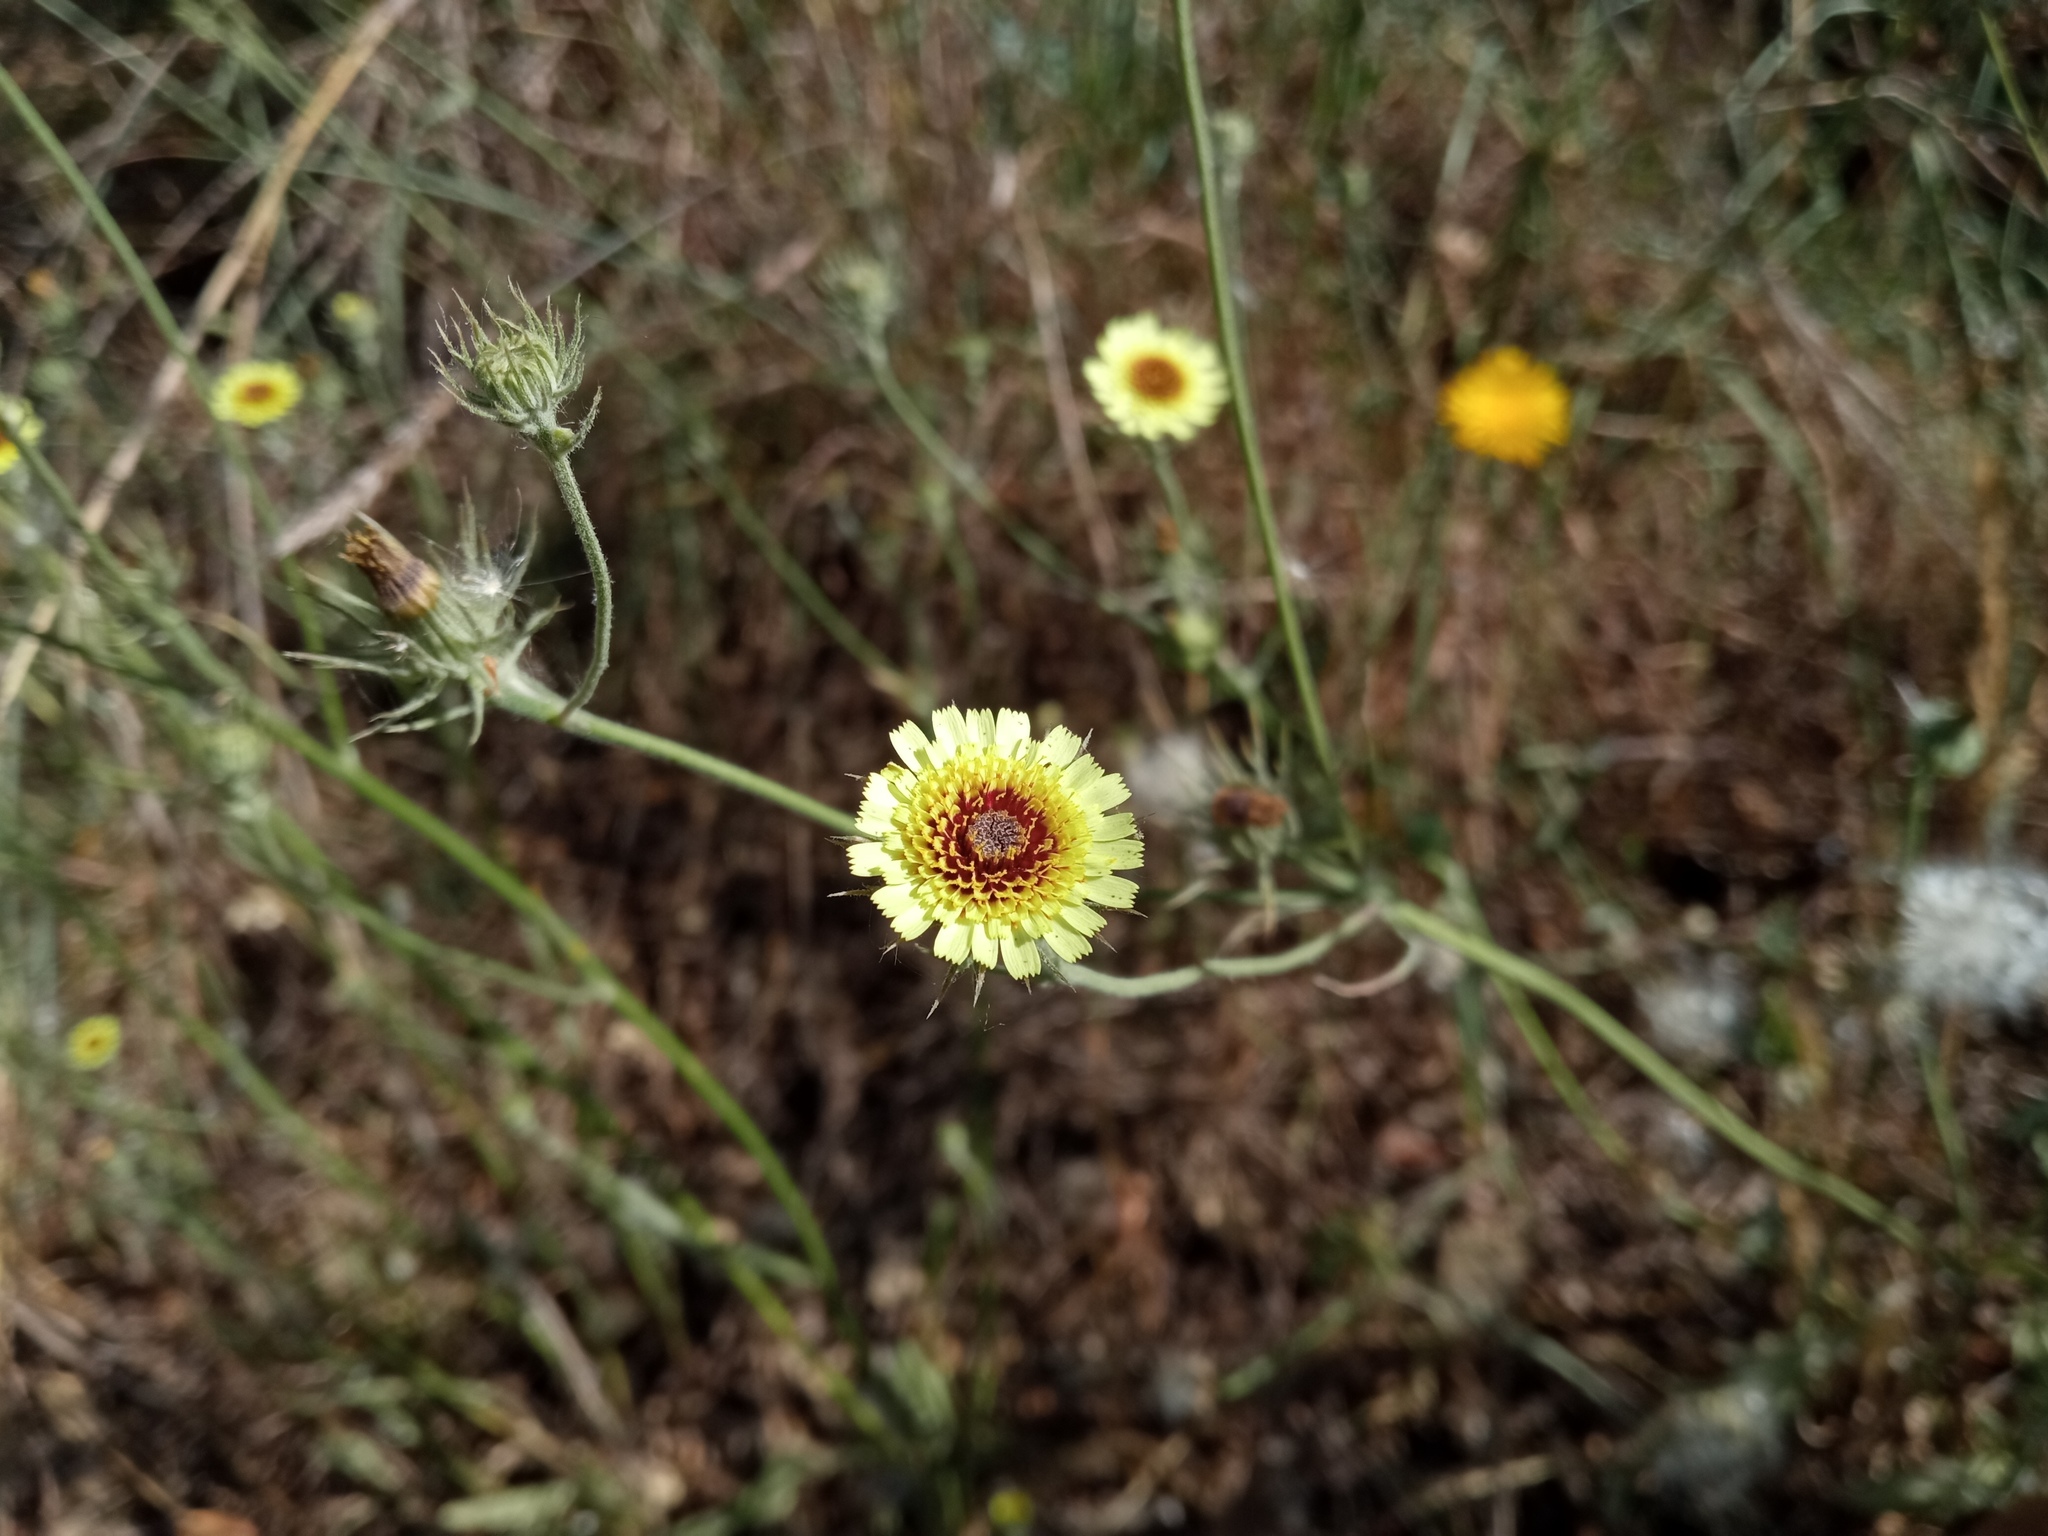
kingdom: Plantae
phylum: Tracheophyta
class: Magnoliopsida
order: Asterales
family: Asteraceae
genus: Tolpis
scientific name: Tolpis umbellata
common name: Yellow hawkweed
